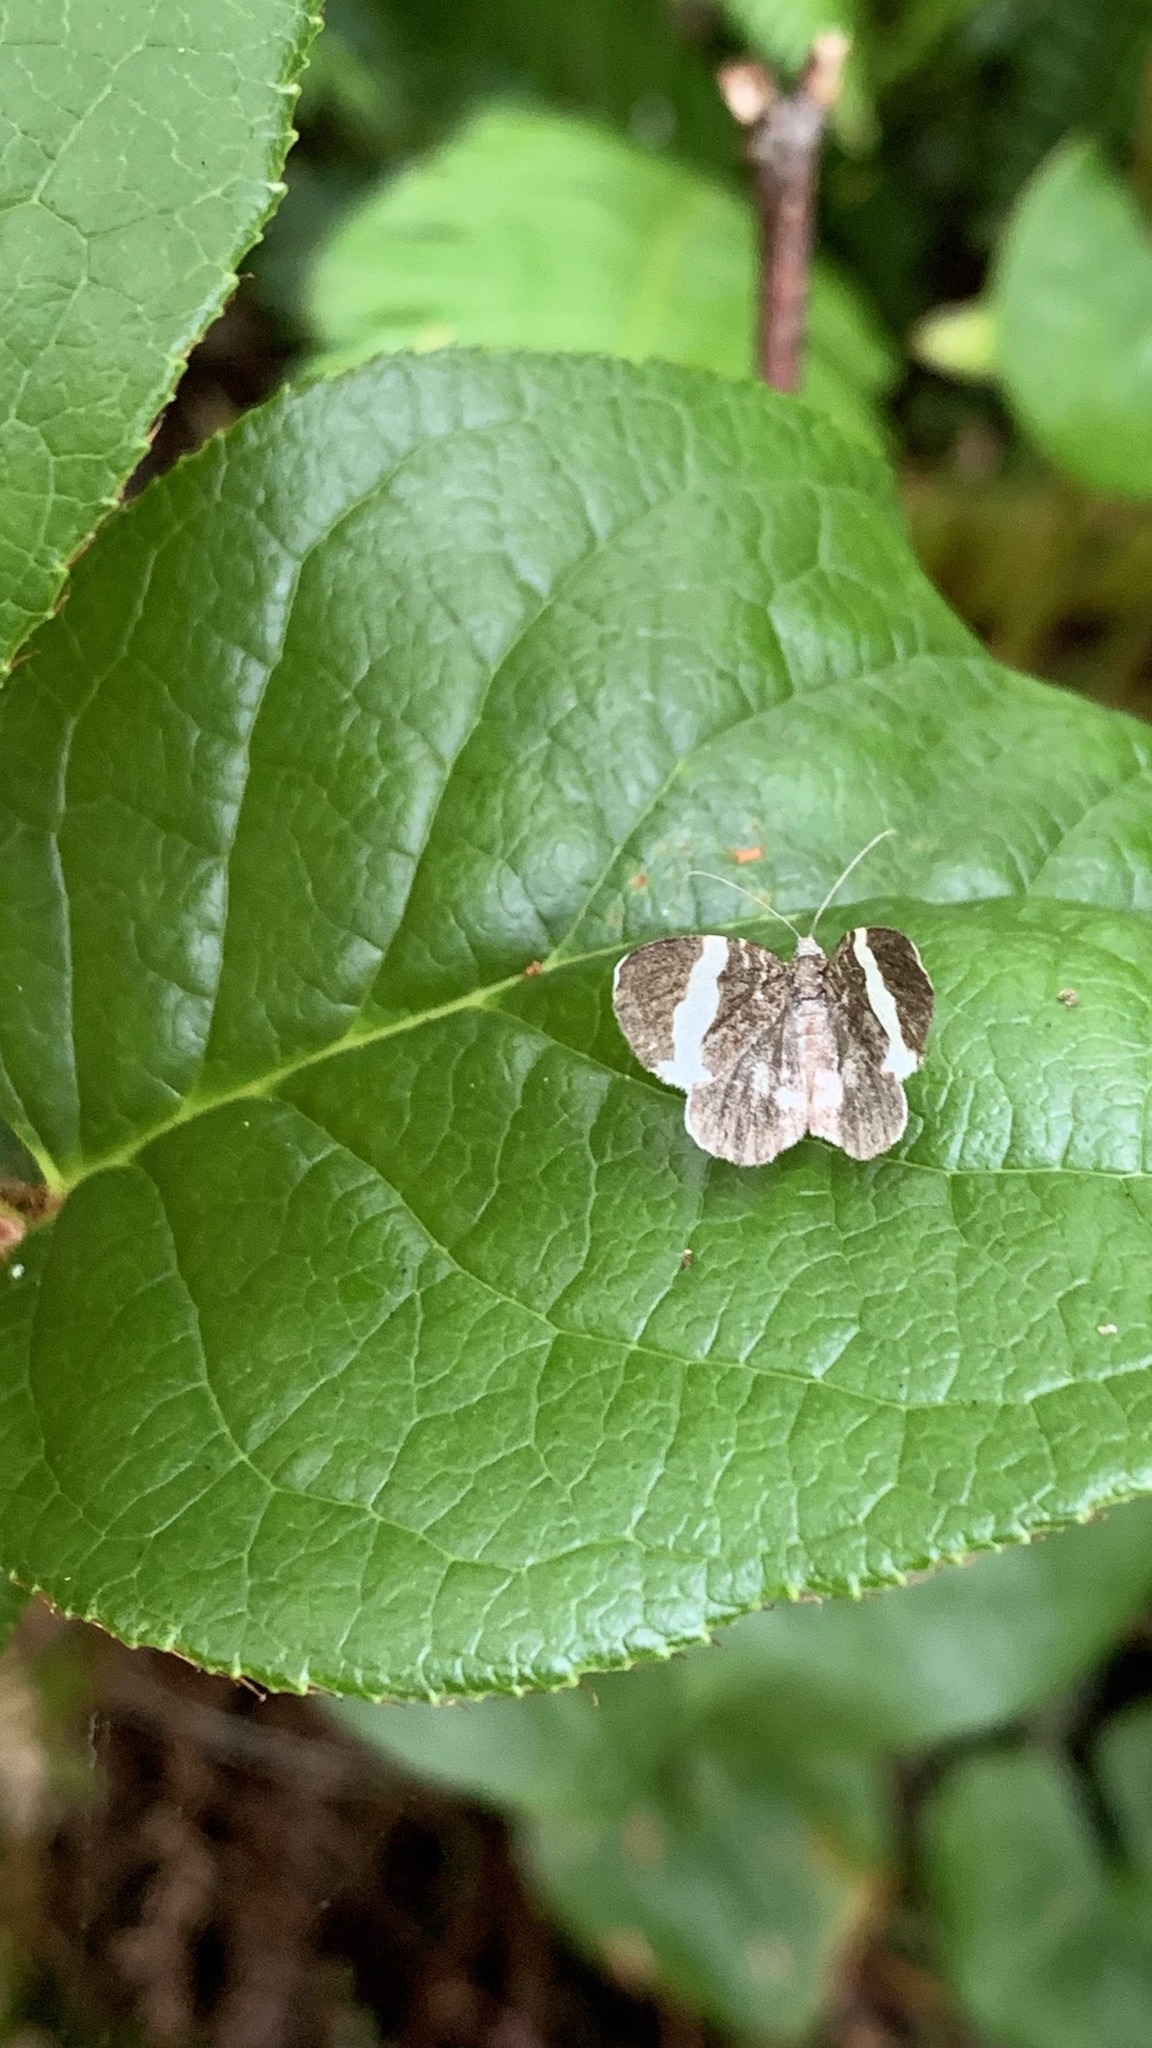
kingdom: Animalia
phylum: Arthropoda
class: Insecta
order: Lepidoptera
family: Geometridae
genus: Trichodezia
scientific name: Trichodezia albovittata
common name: White striped black
